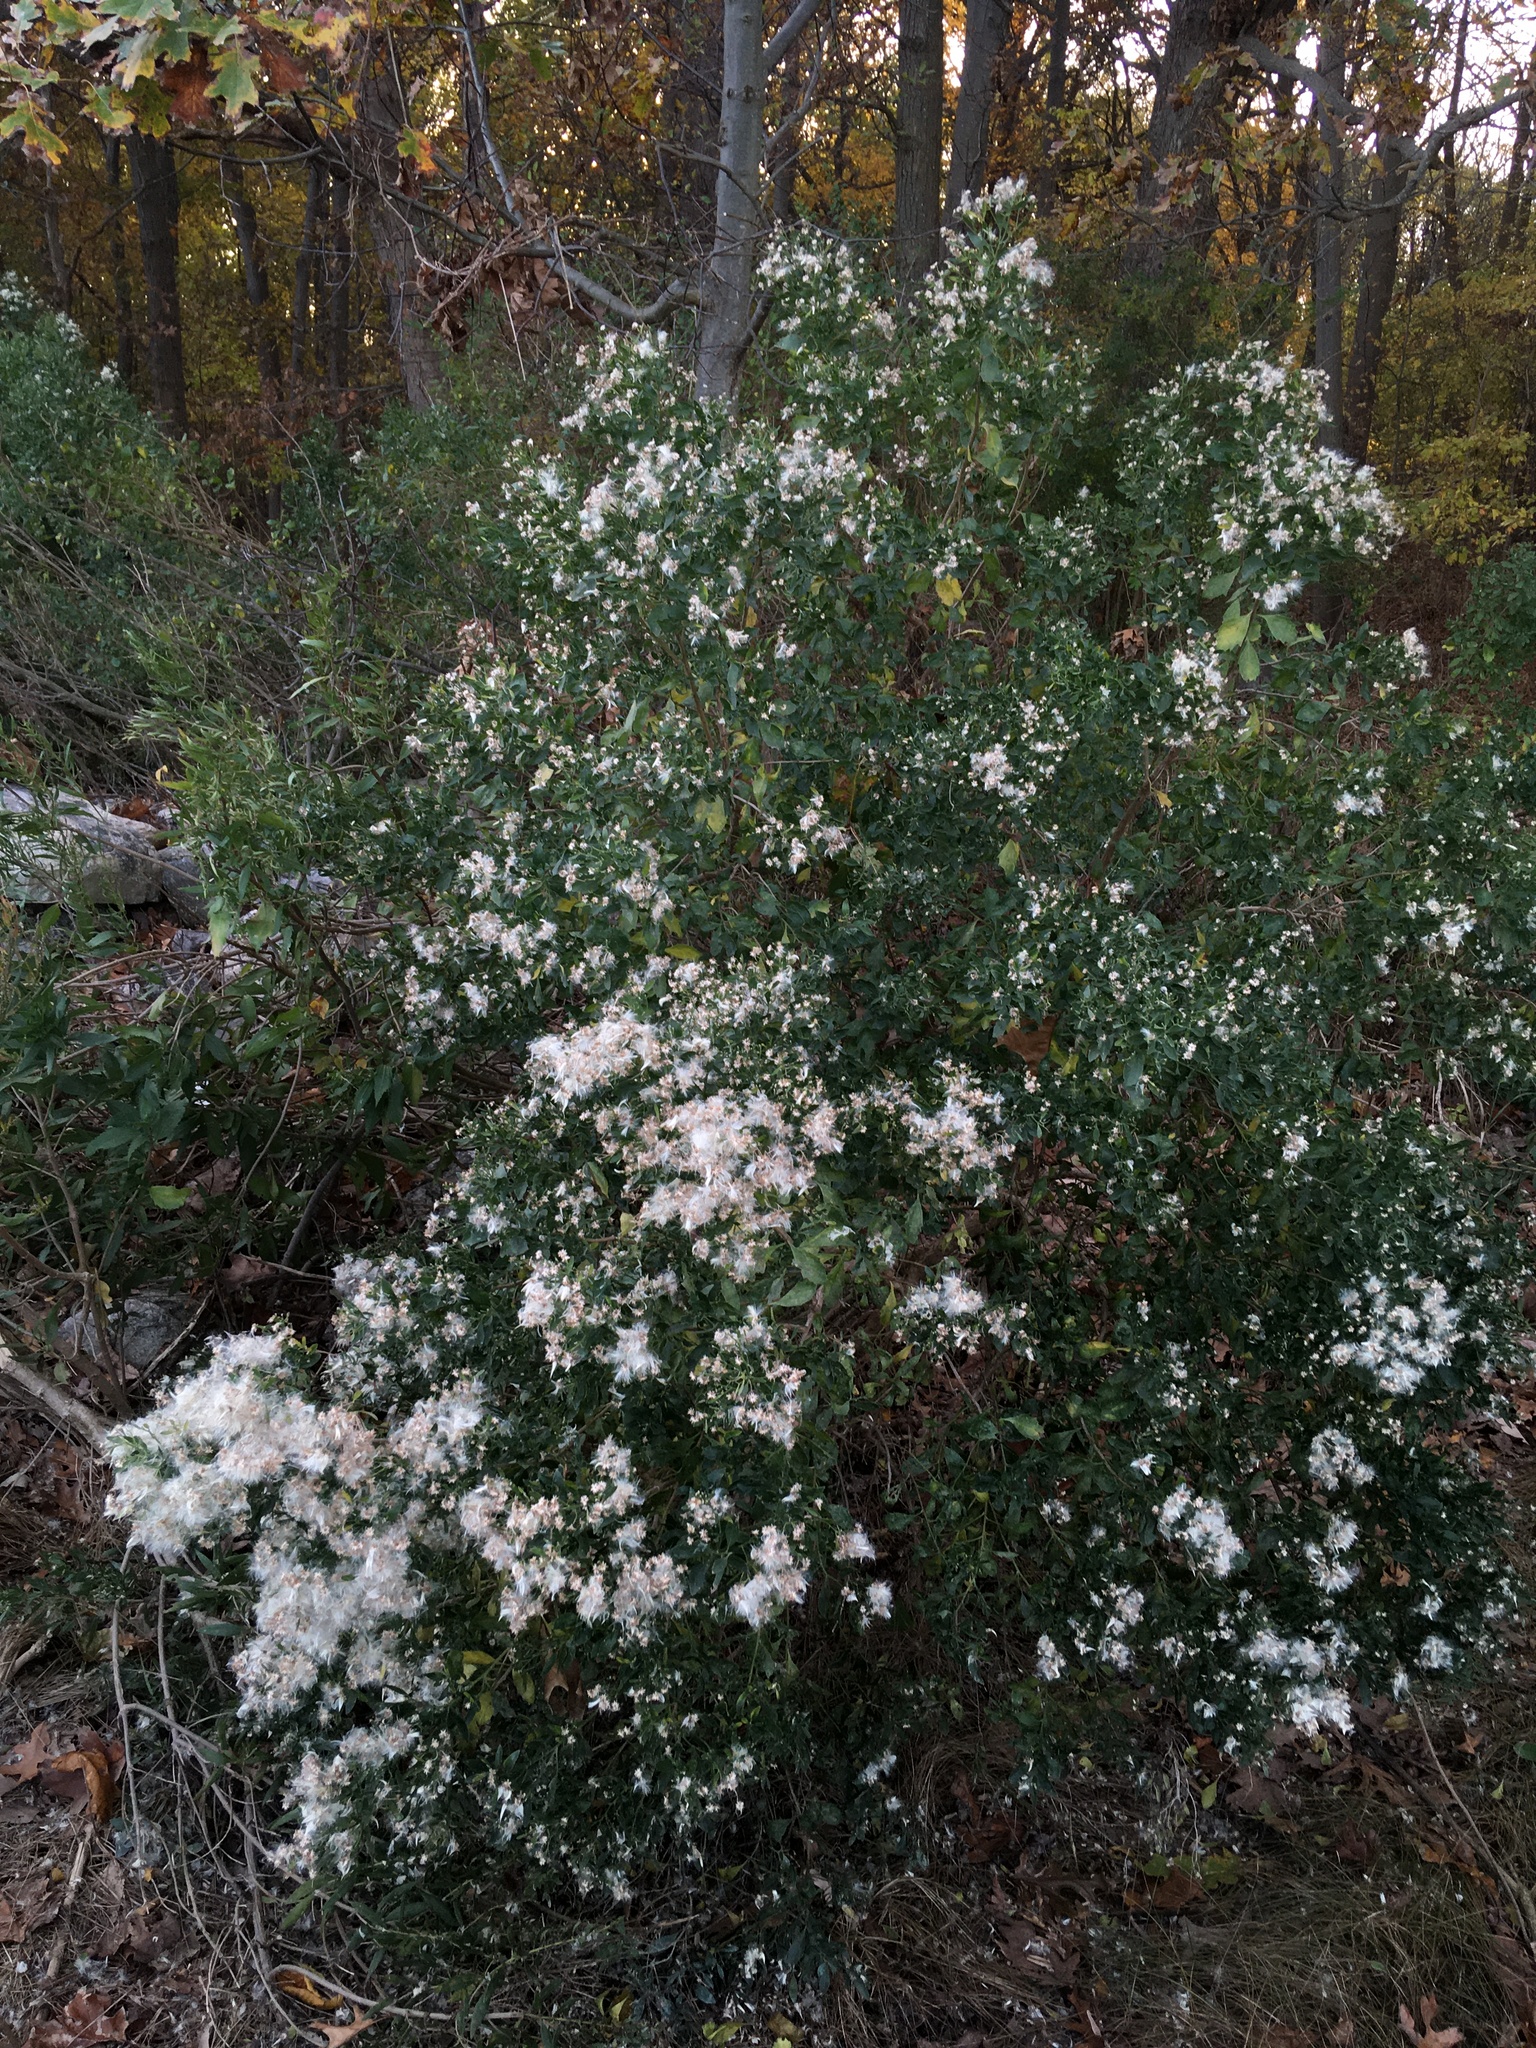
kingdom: Plantae
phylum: Tracheophyta
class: Magnoliopsida
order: Asterales
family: Asteraceae
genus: Baccharis
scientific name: Baccharis halimifolia
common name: Eastern baccharis
